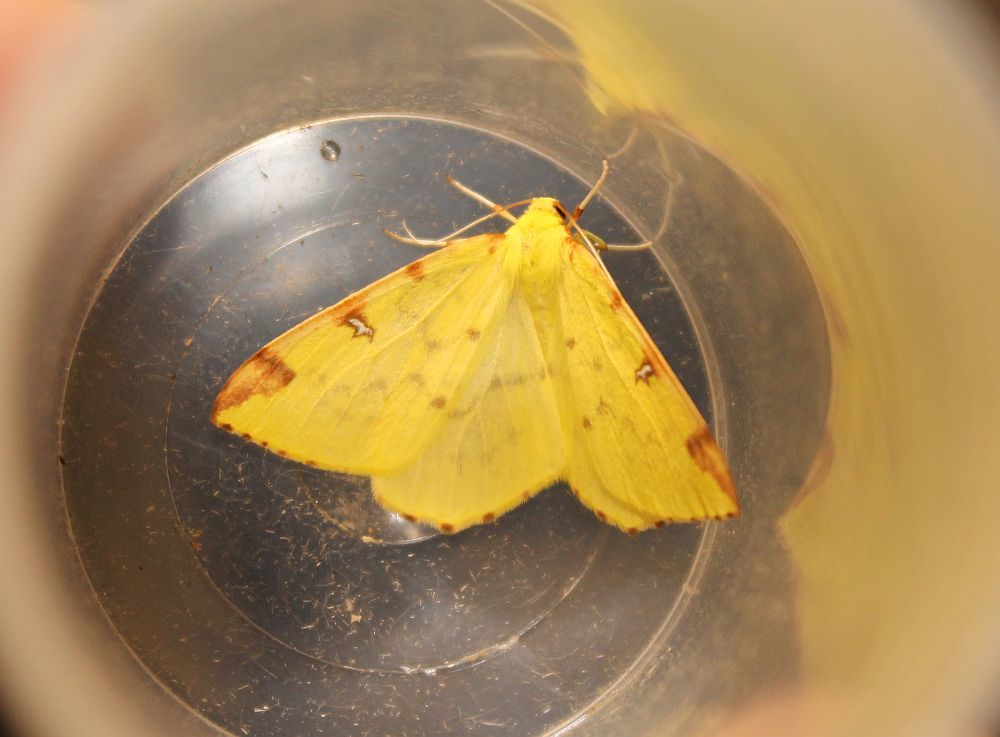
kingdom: Animalia
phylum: Arthropoda
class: Insecta
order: Lepidoptera
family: Geometridae
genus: Opisthograptis
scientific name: Opisthograptis luteolata
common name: Brimstone moth
